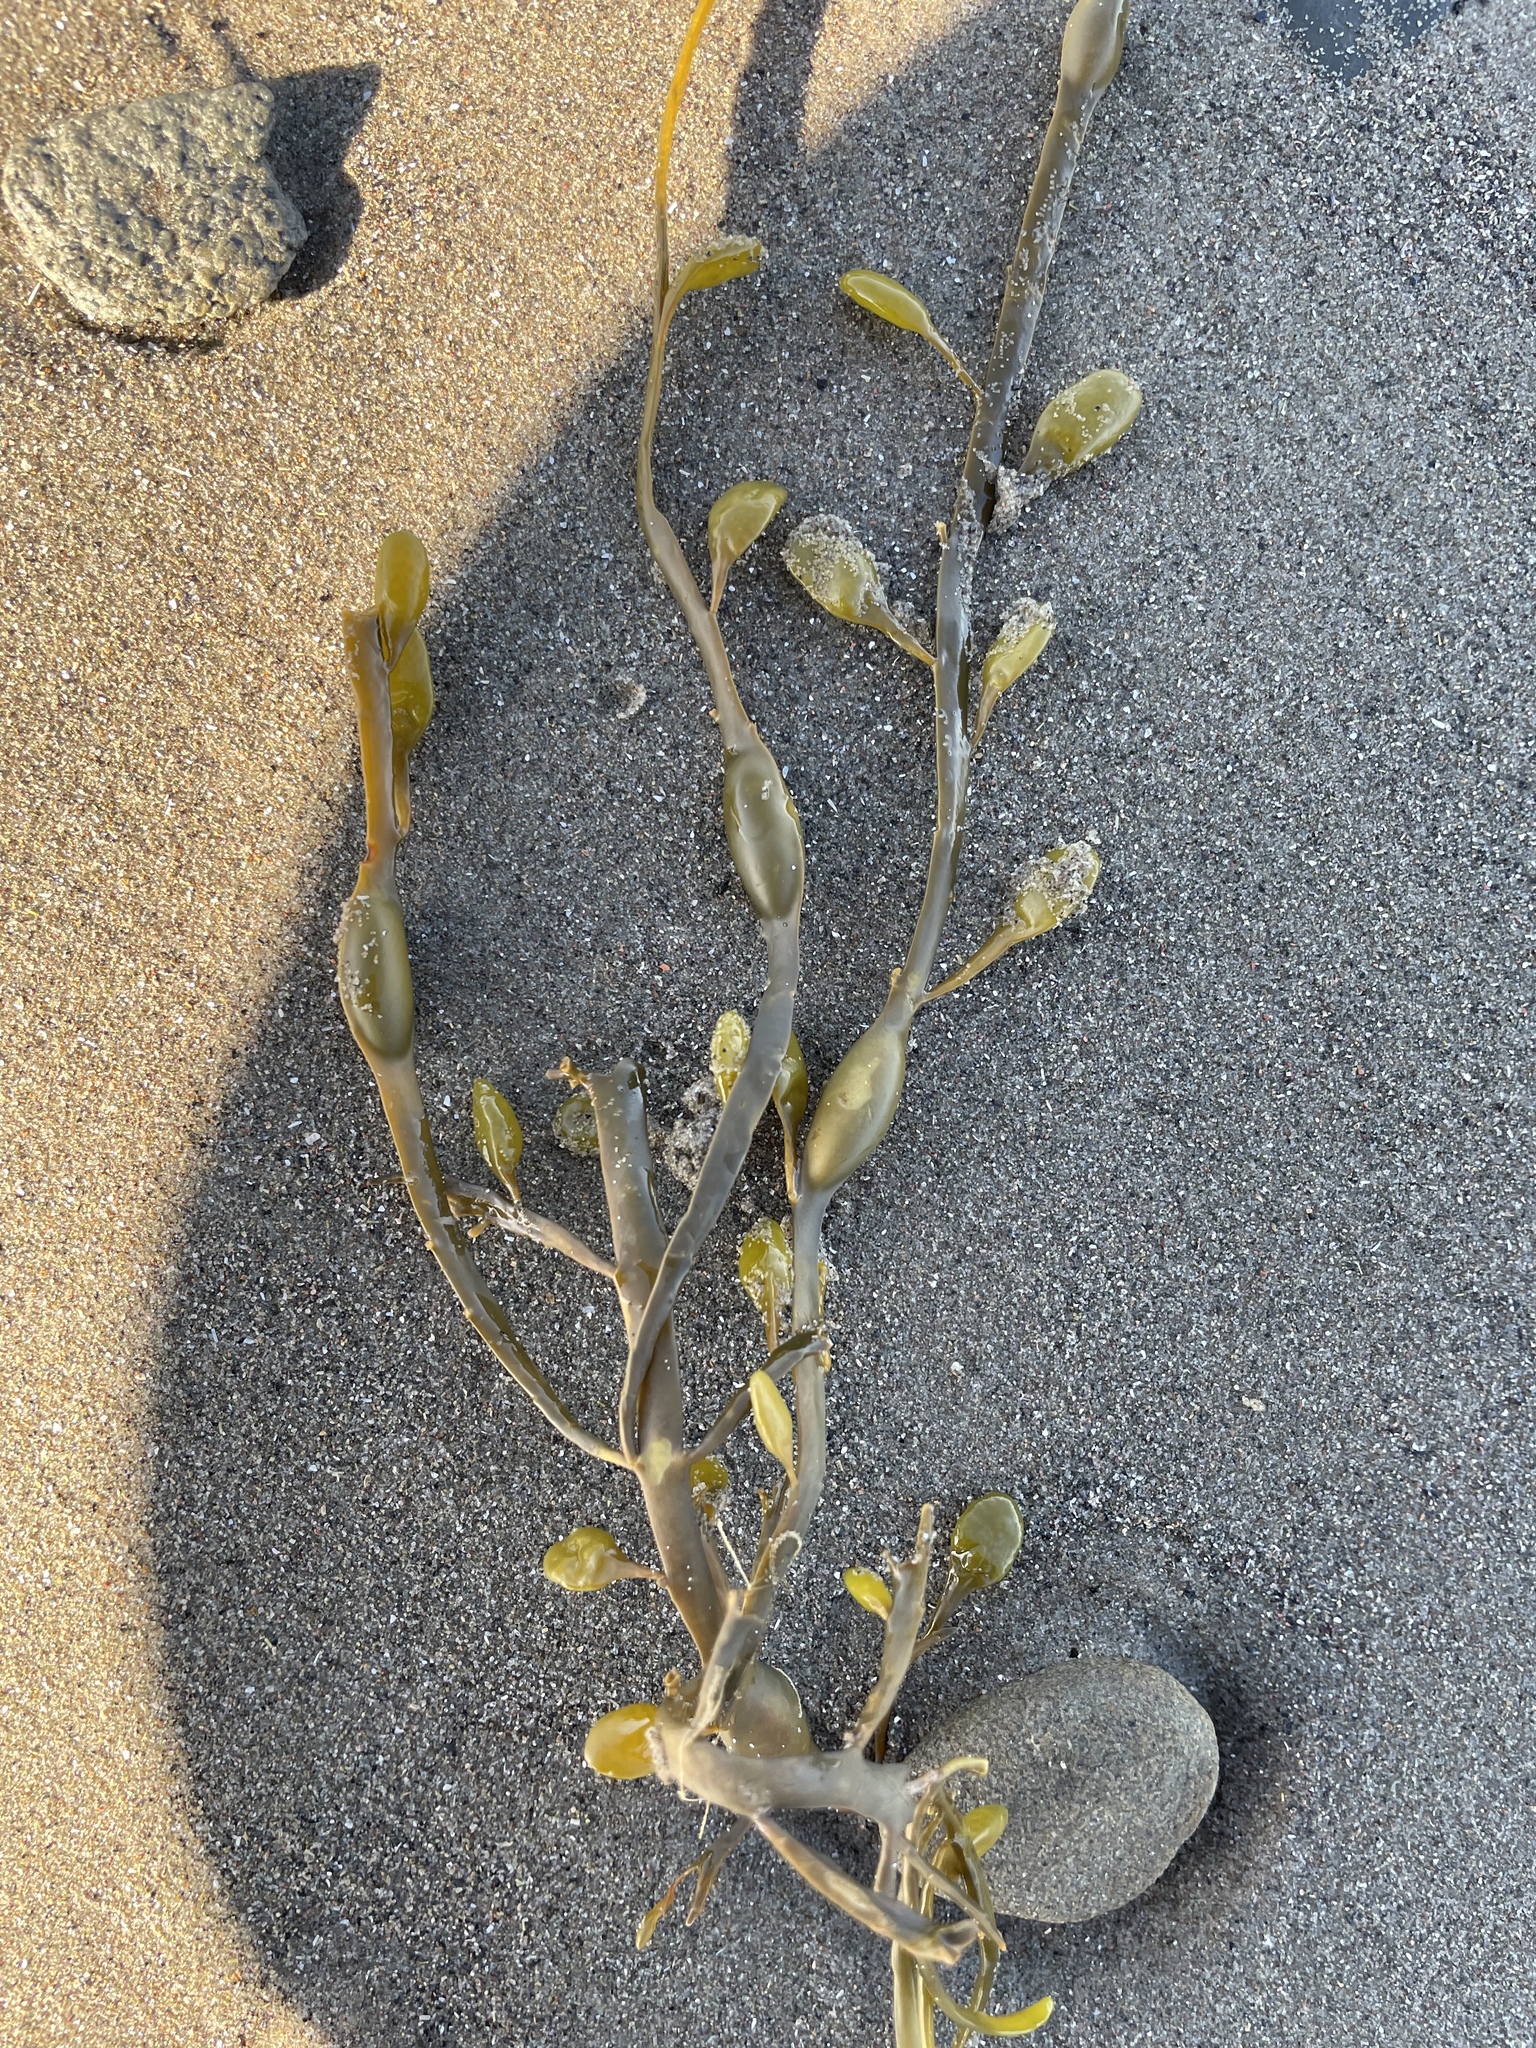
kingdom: Chromista
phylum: Ochrophyta
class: Phaeophyceae
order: Fucales
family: Fucaceae
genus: Ascophyllum
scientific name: Ascophyllum nodosum
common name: Knotted wrack
